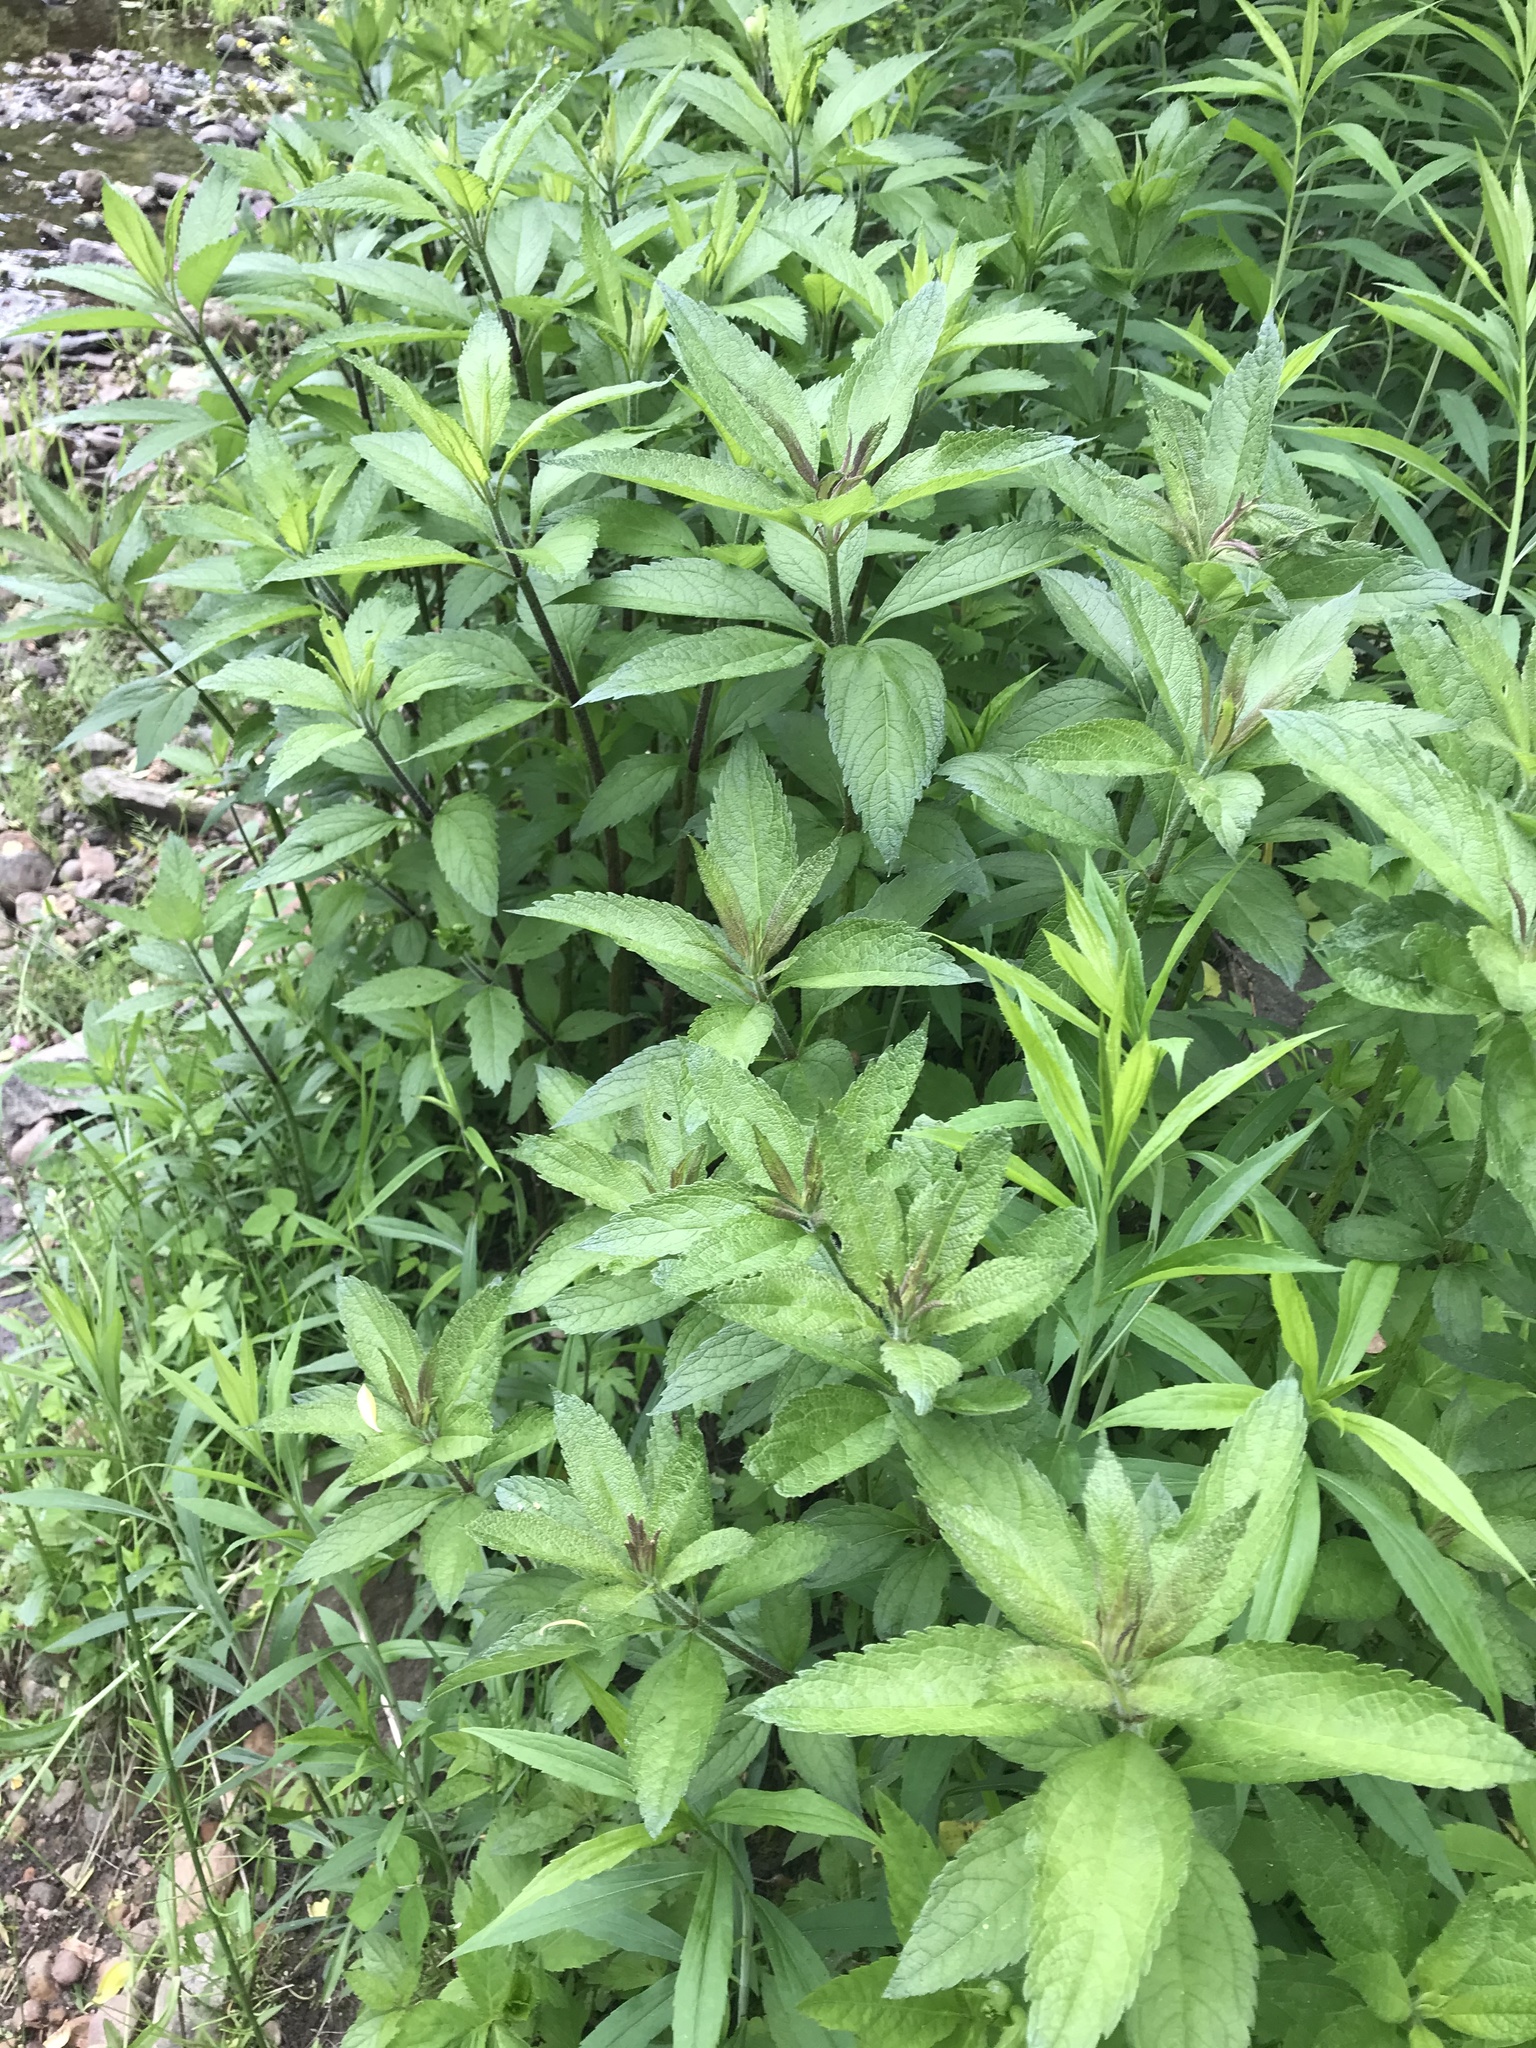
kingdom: Plantae
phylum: Tracheophyta
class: Magnoliopsida
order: Asterales
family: Asteraceae
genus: Eutrochium
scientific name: Eutrochium maculatum
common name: Spotted joe pye weed
